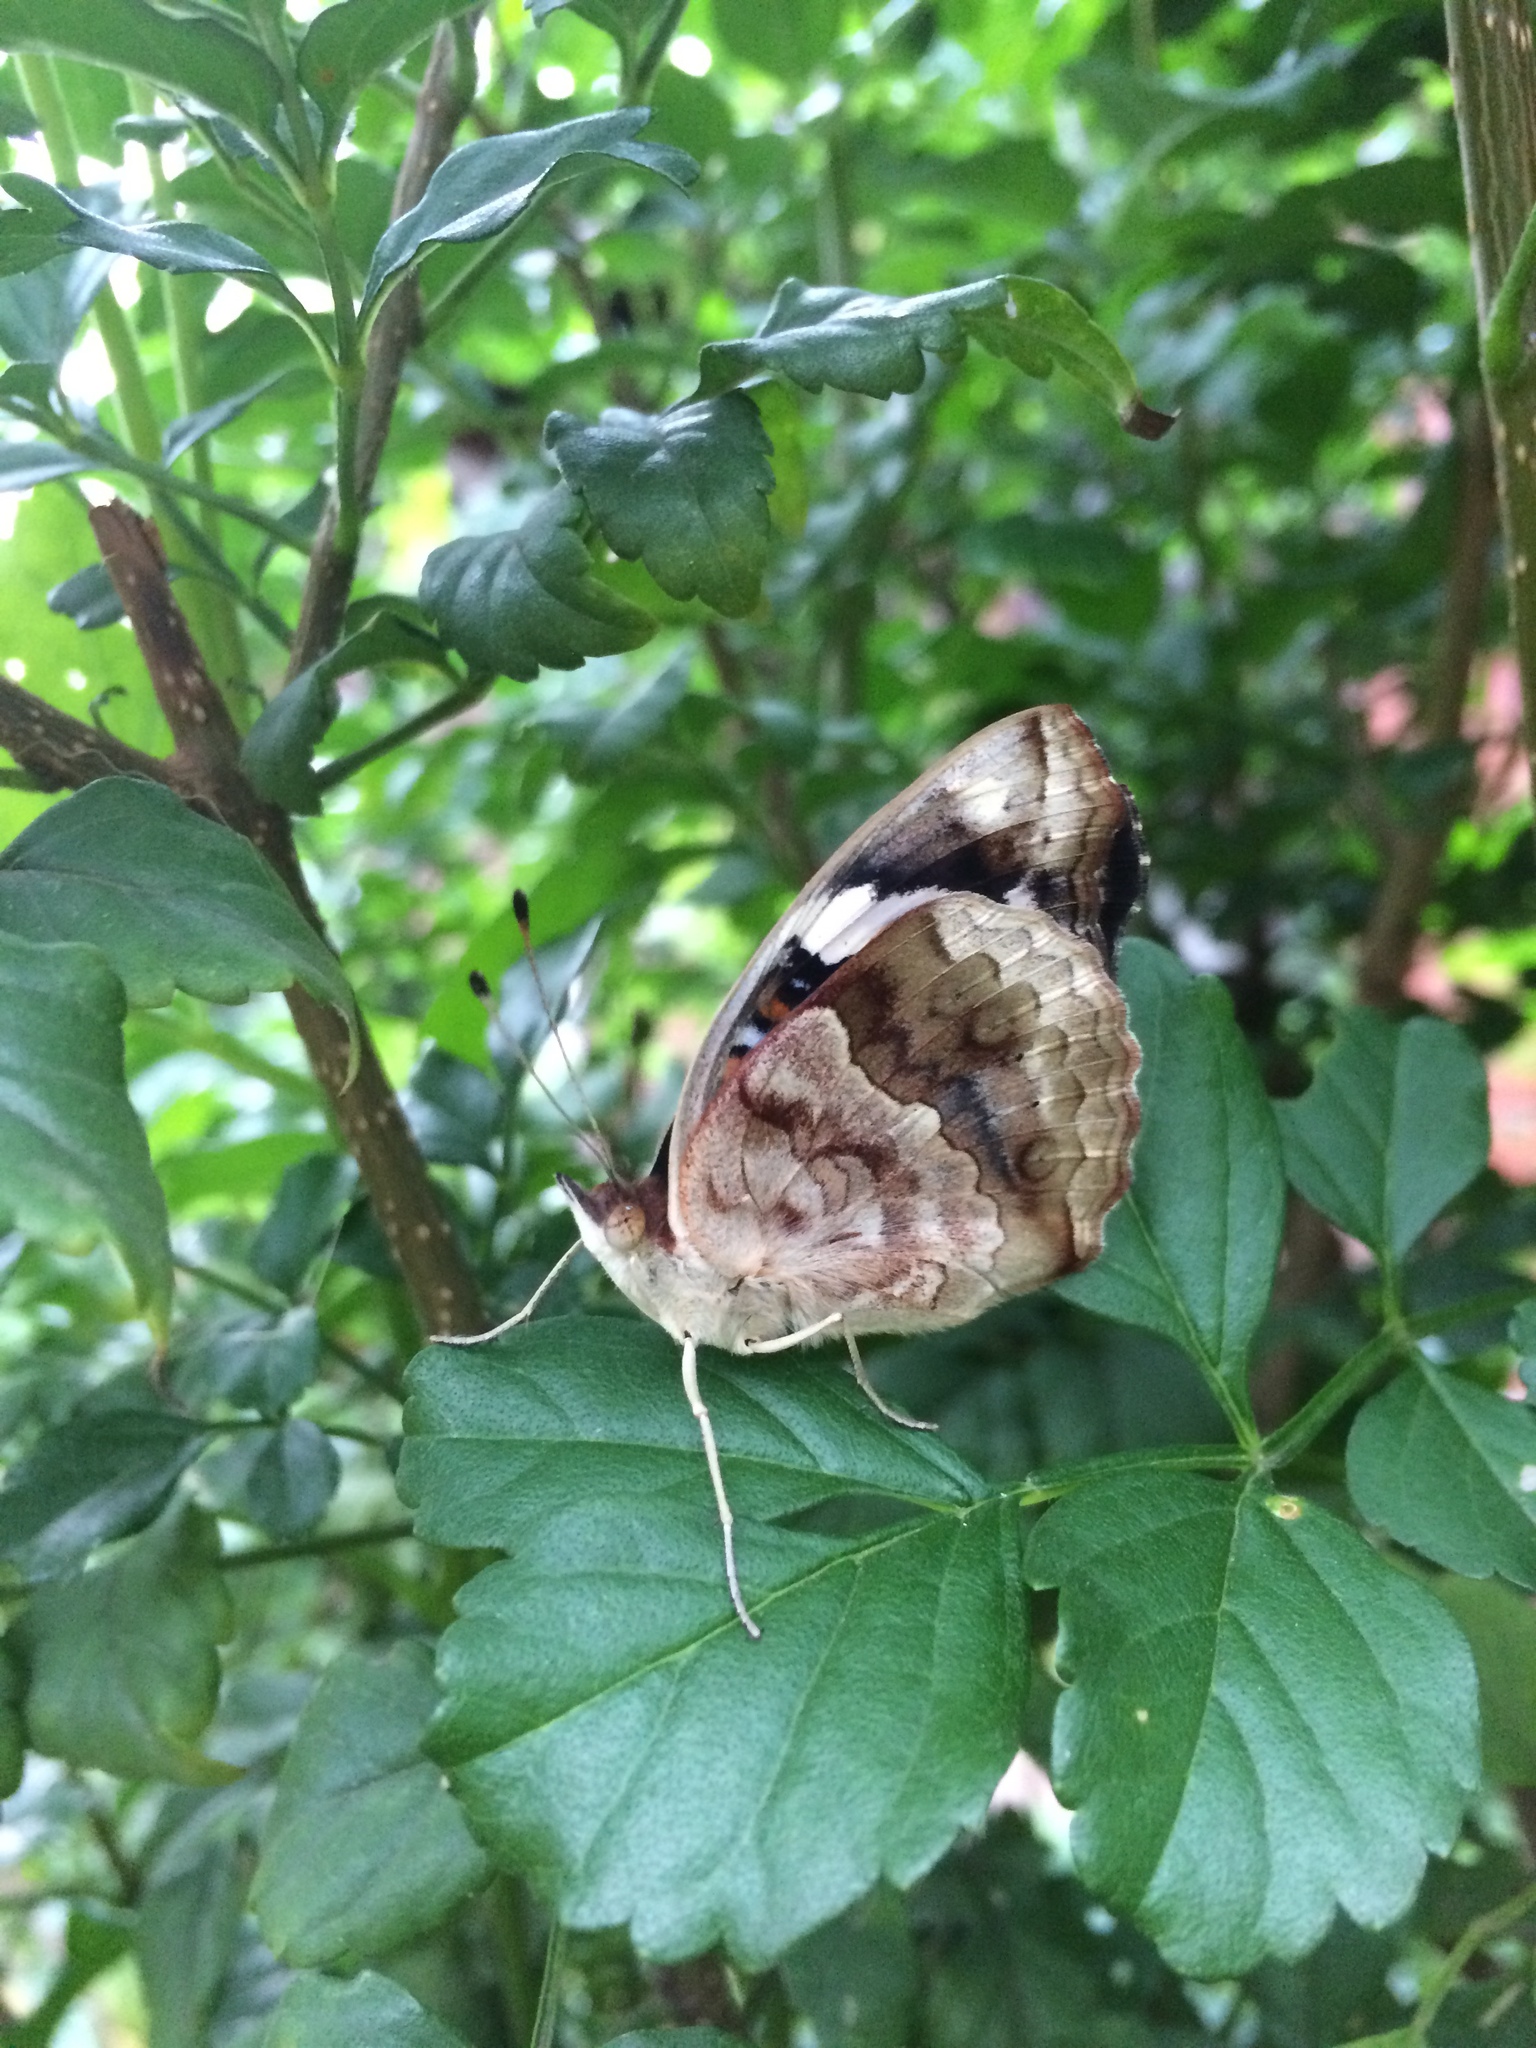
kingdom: Animalia
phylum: Arthropoda
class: Insecta
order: Lepidoptera
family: Nymphalidae
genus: Junonia
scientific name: Junonia oenone
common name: Dark blue pansy
